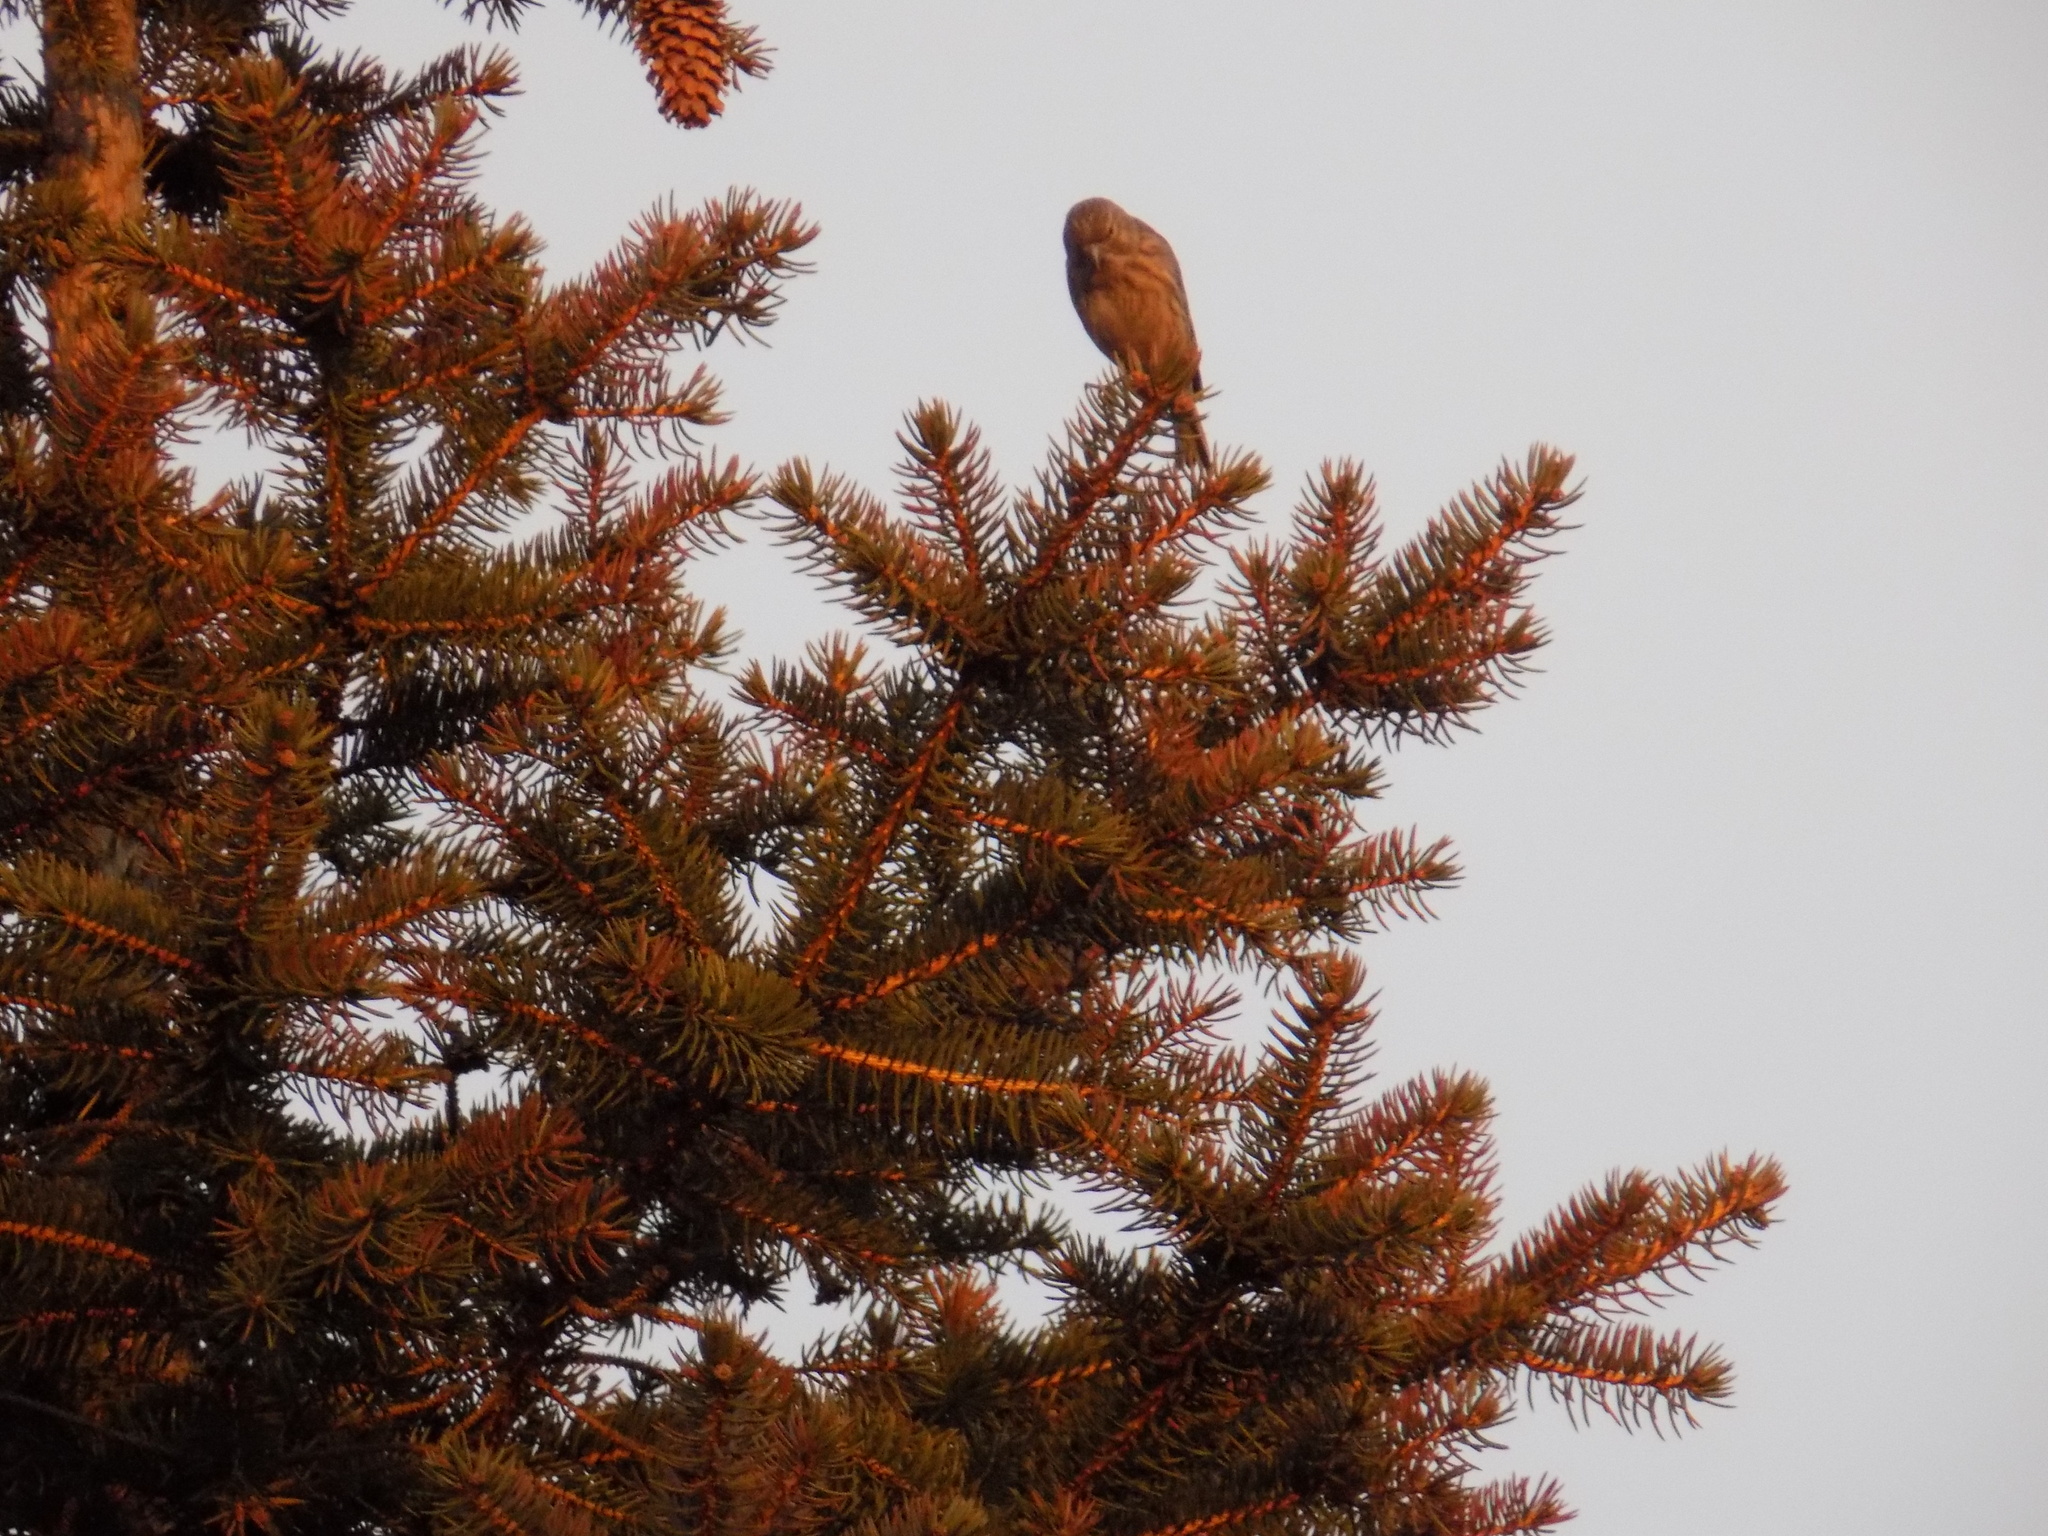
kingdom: Animalia
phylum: Chordata
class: Aves
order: Passeriformes
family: Fringillidae
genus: Linaria
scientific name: Linaria cannabina
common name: Common linnet
